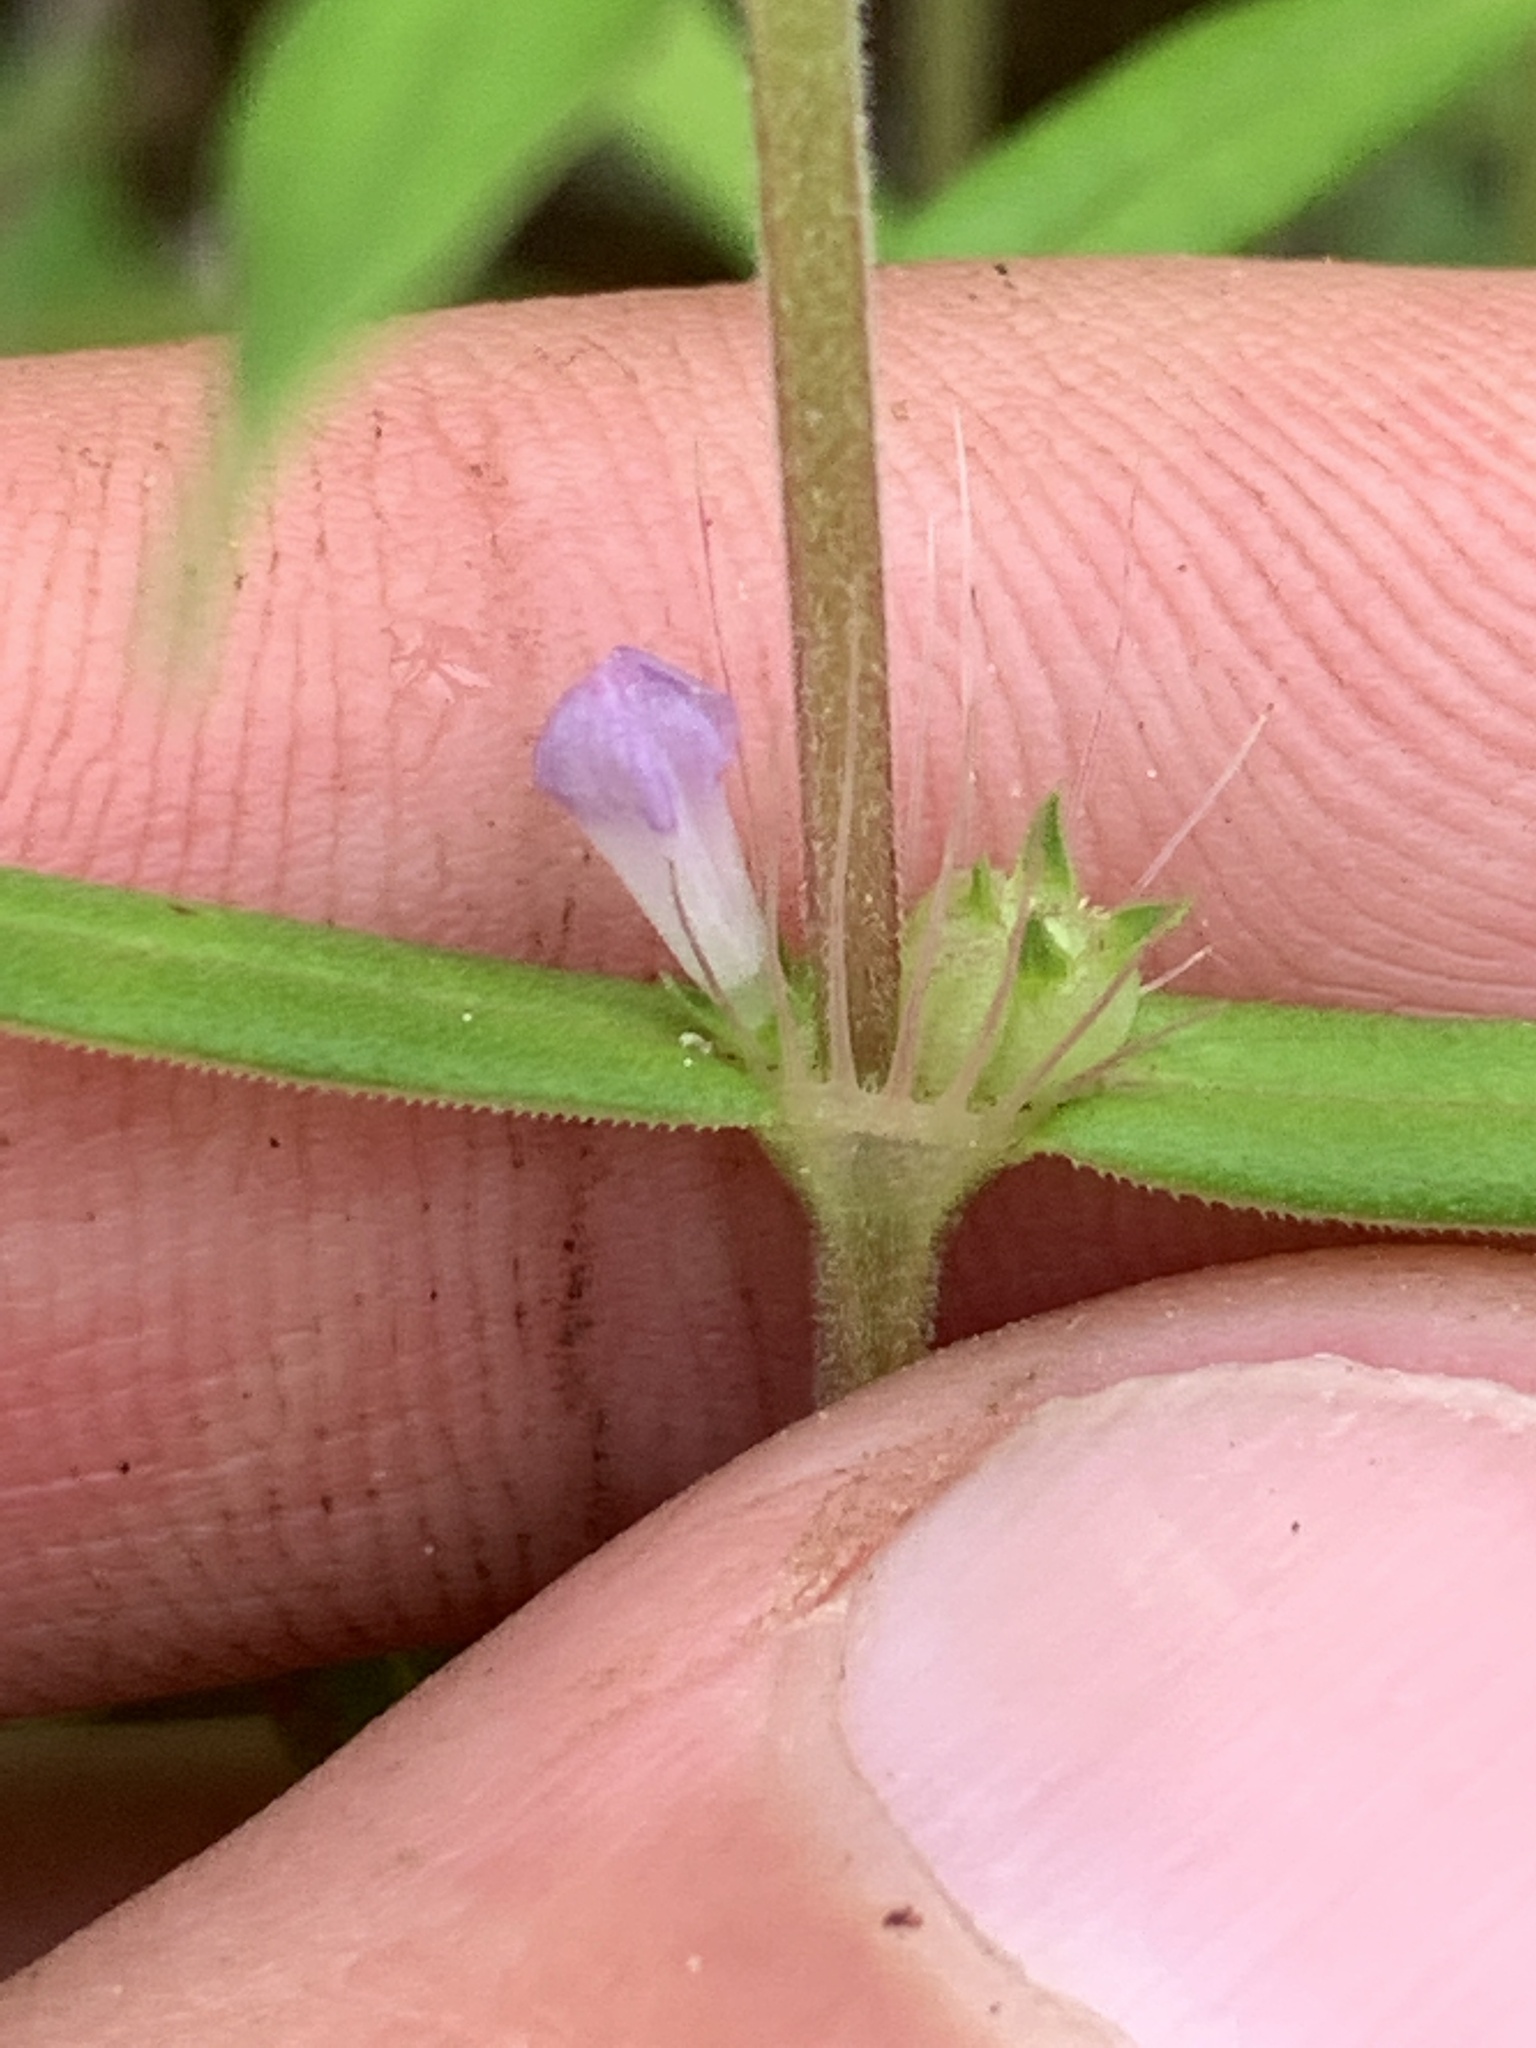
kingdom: Plantae
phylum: Tracheophyta
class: Magnoliopsida
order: Gentianales
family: Rubiaceae
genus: Hexasepalum
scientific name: Hexasepalum teres
